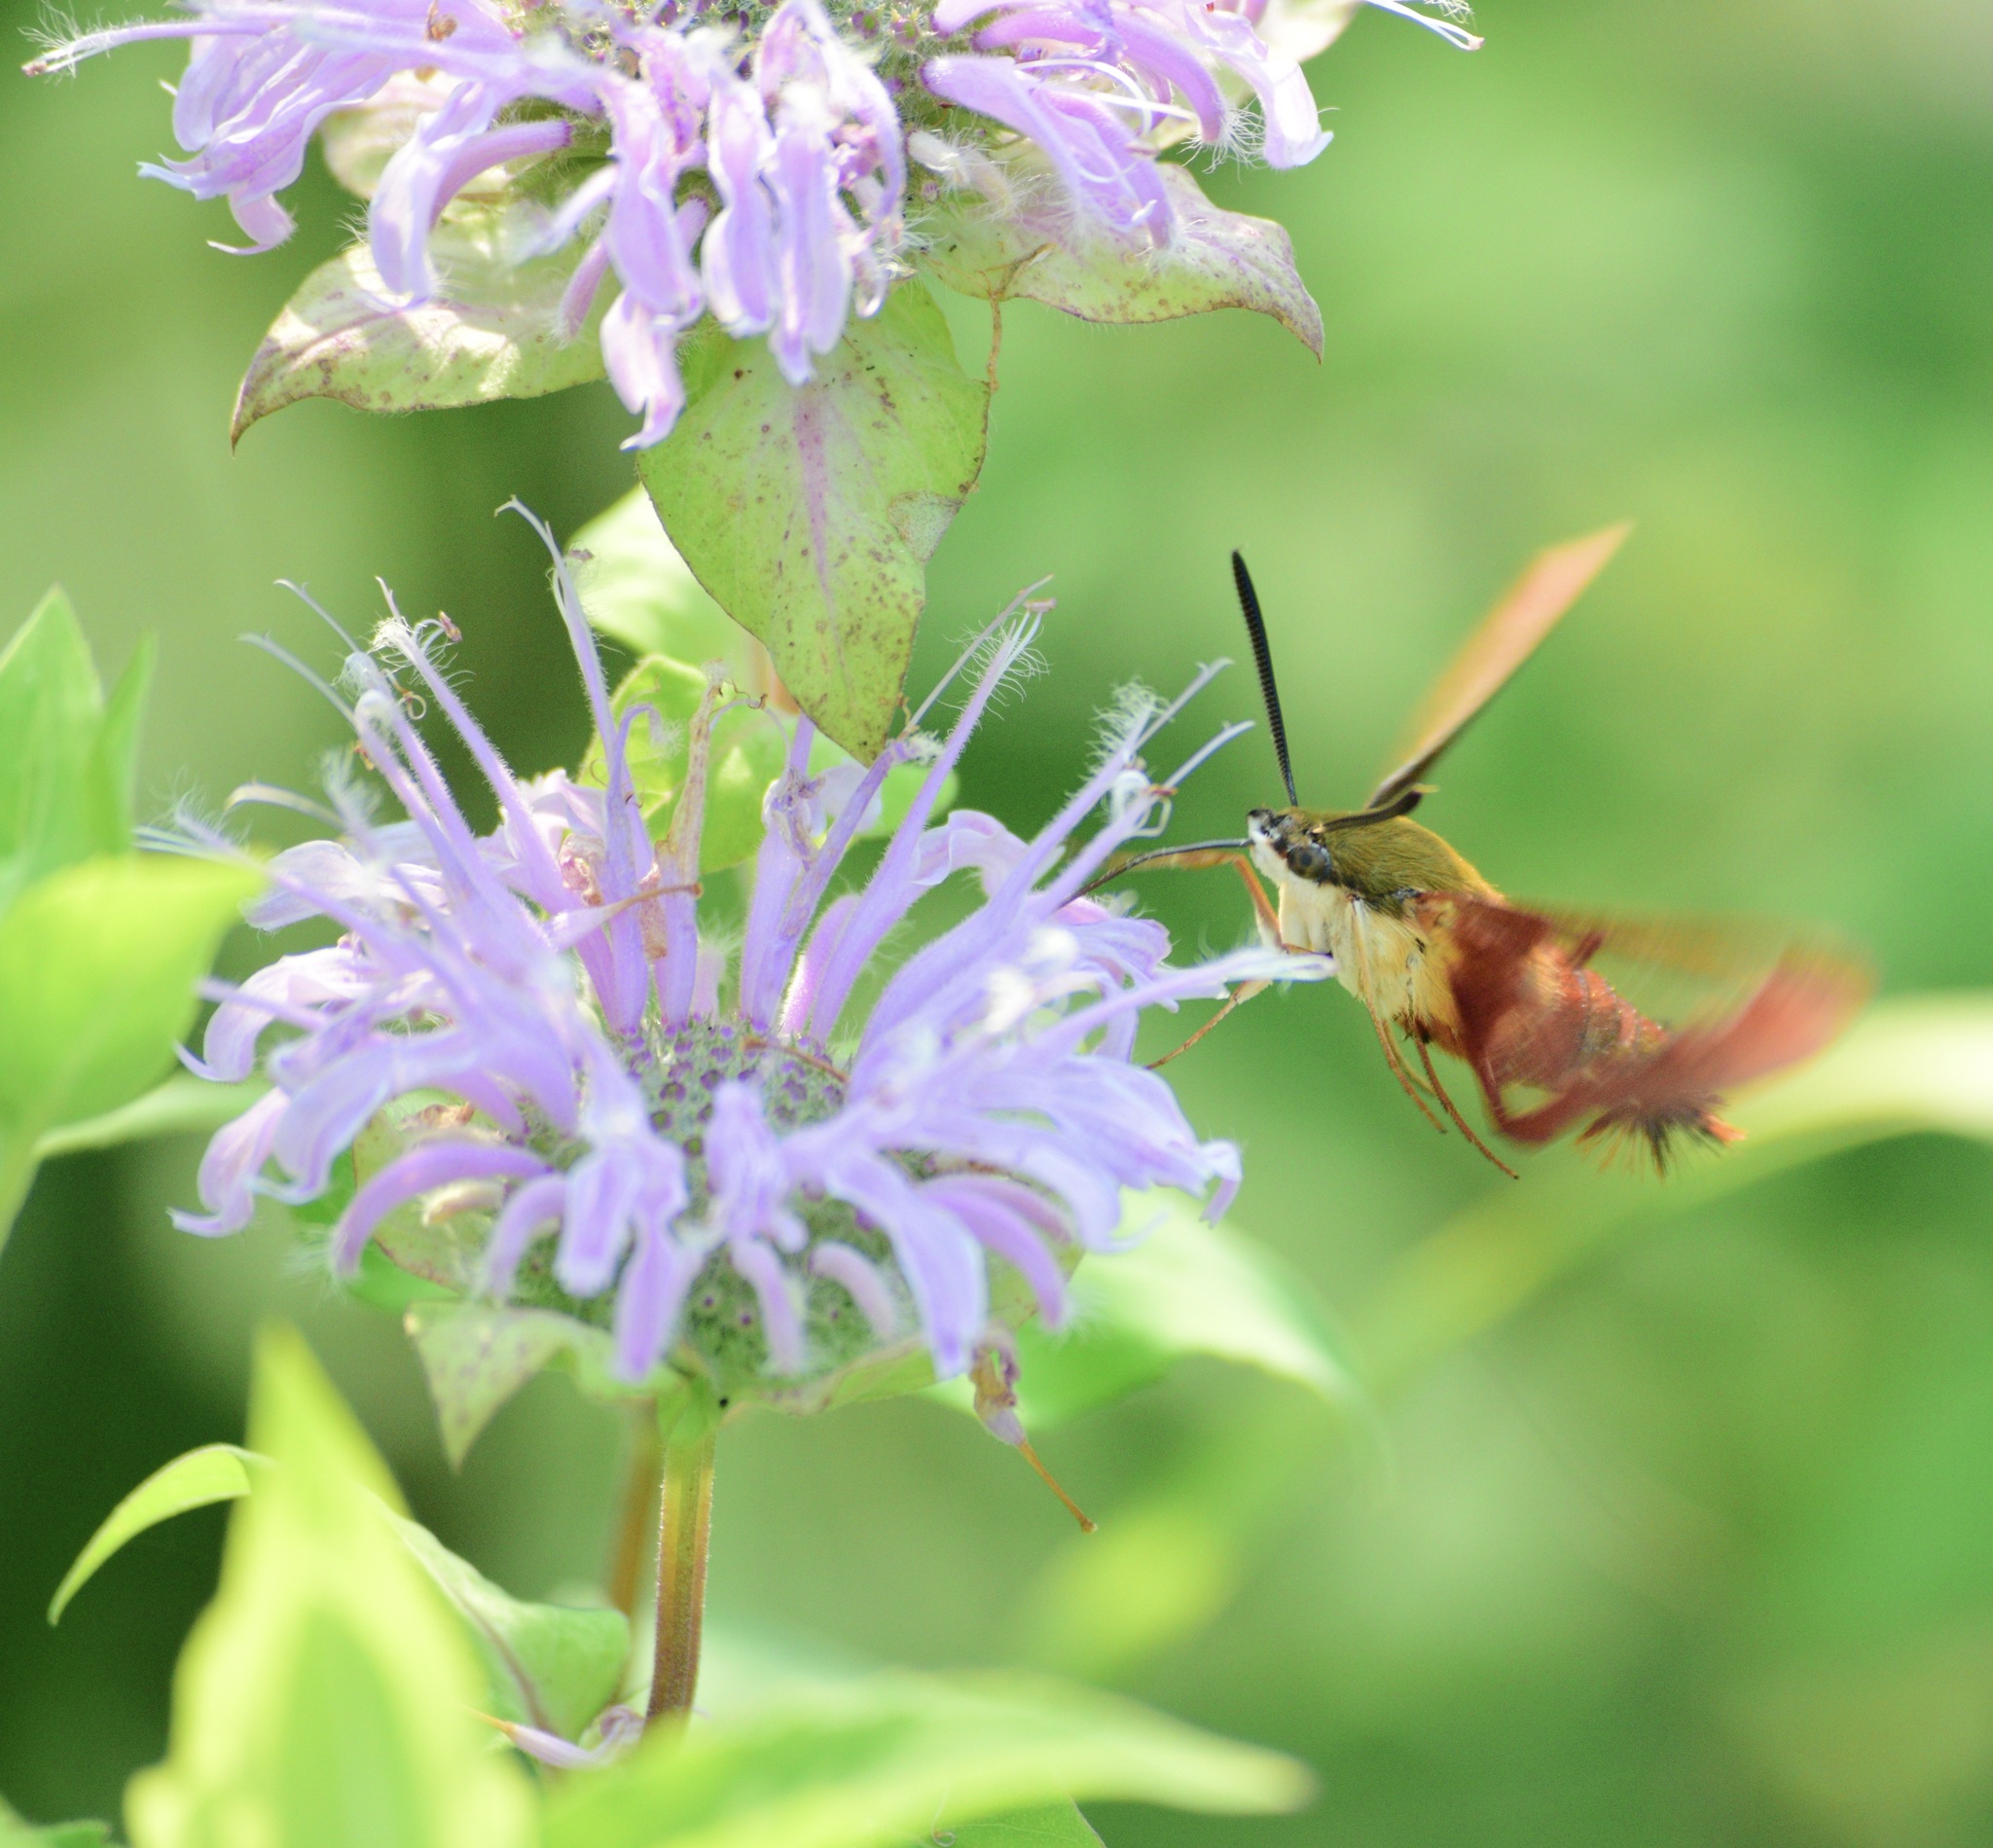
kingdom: Animalia
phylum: Arthropoda
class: Insecta
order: Lepidoptera
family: Sphingidae
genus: Hemaris
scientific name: Hemaris thysbe
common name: Common clear-wing
